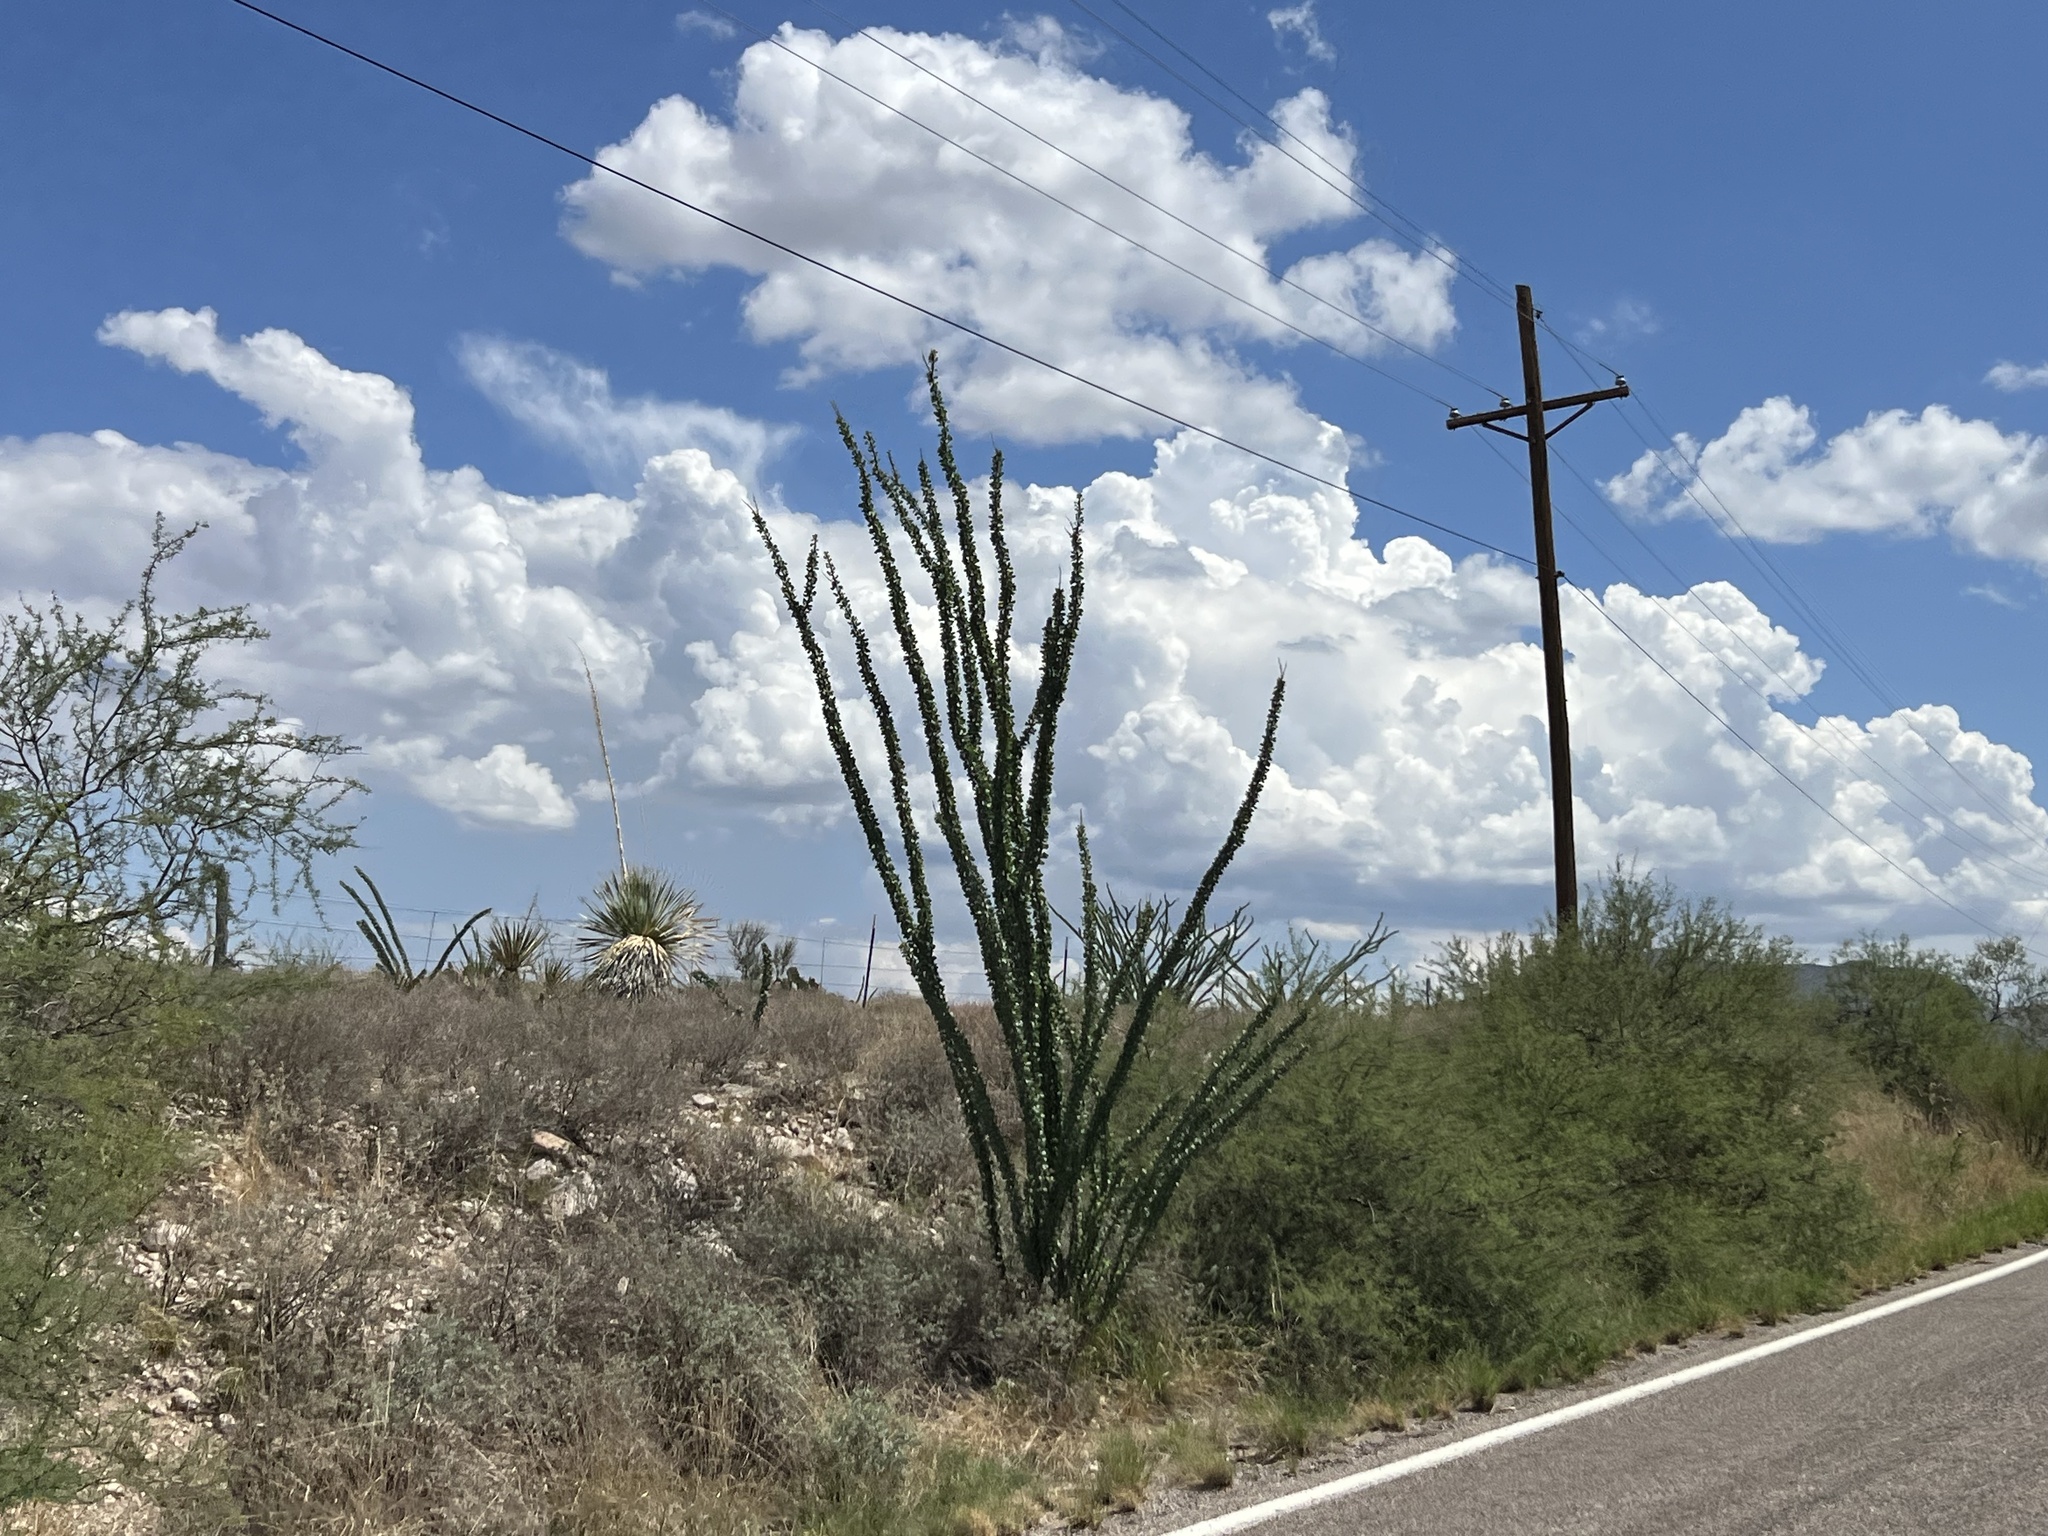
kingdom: Plantae
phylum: Tracheophyta
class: Magnoliopsida
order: Ericales
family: Fouquieriaceae
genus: Fouquieria
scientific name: Fouquieria splendens
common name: Vine-cactus
